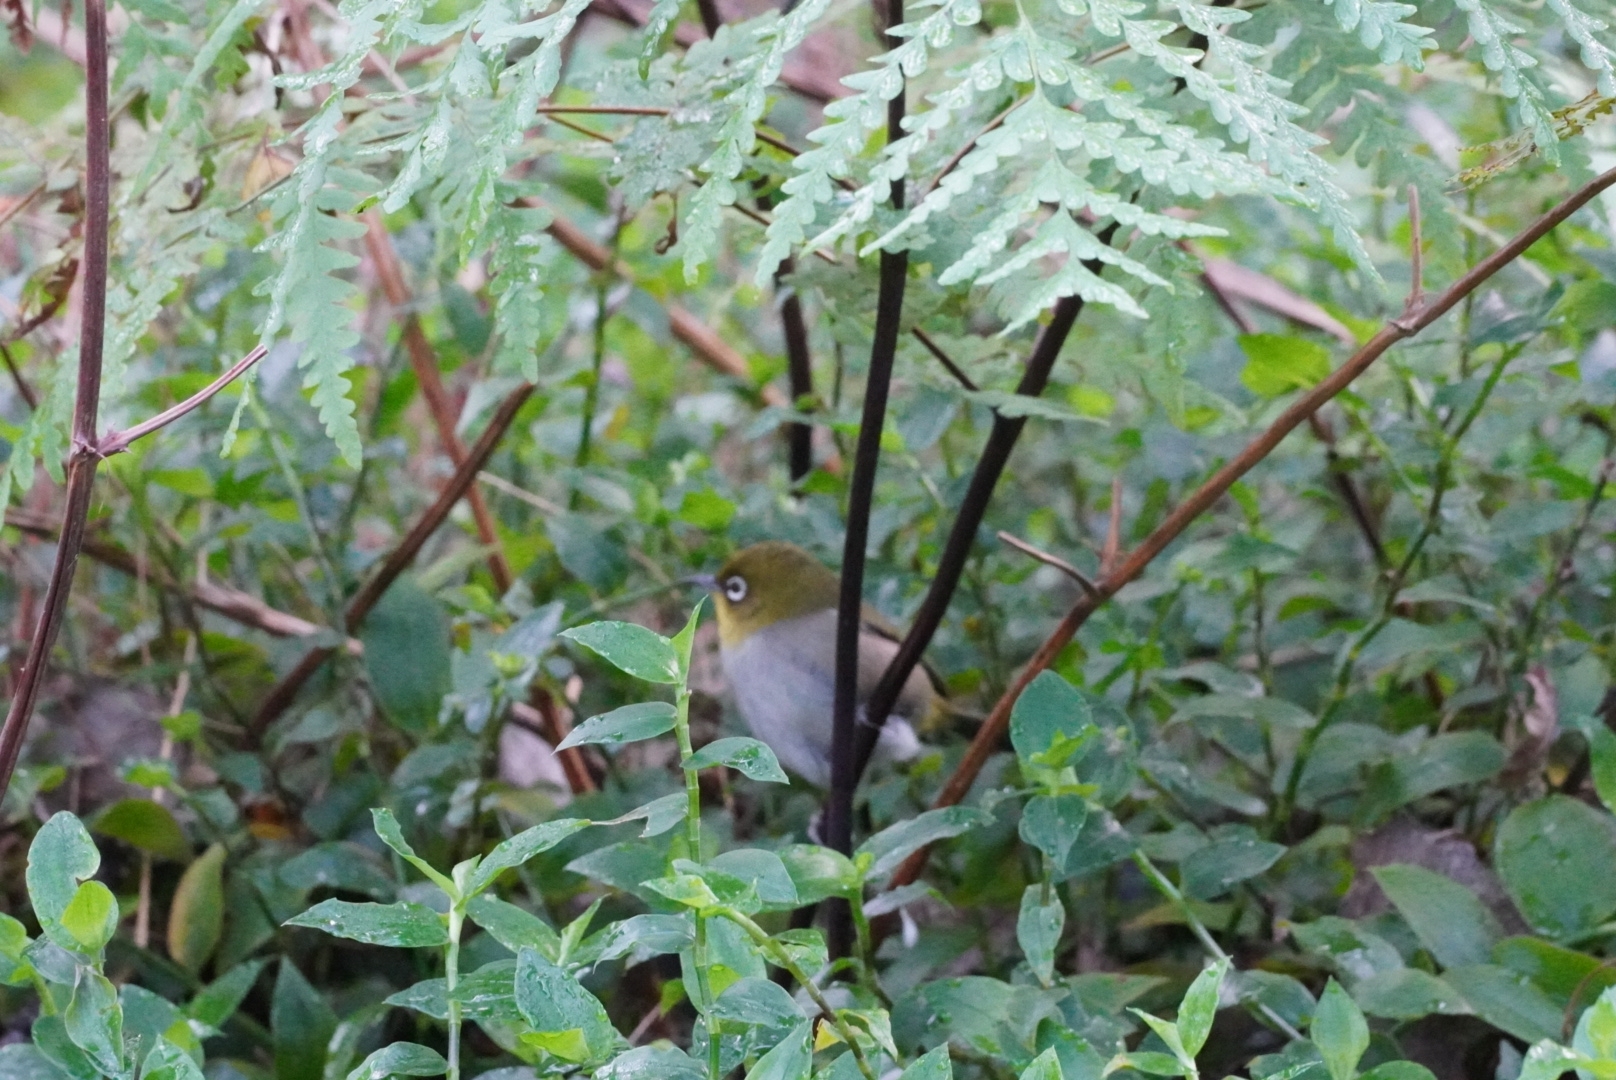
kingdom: Animalia
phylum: Chordata
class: Aves
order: Passeriformes
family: Zosteropidae
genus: Zosterops
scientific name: Zosterops virens
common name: Cape white-eye
